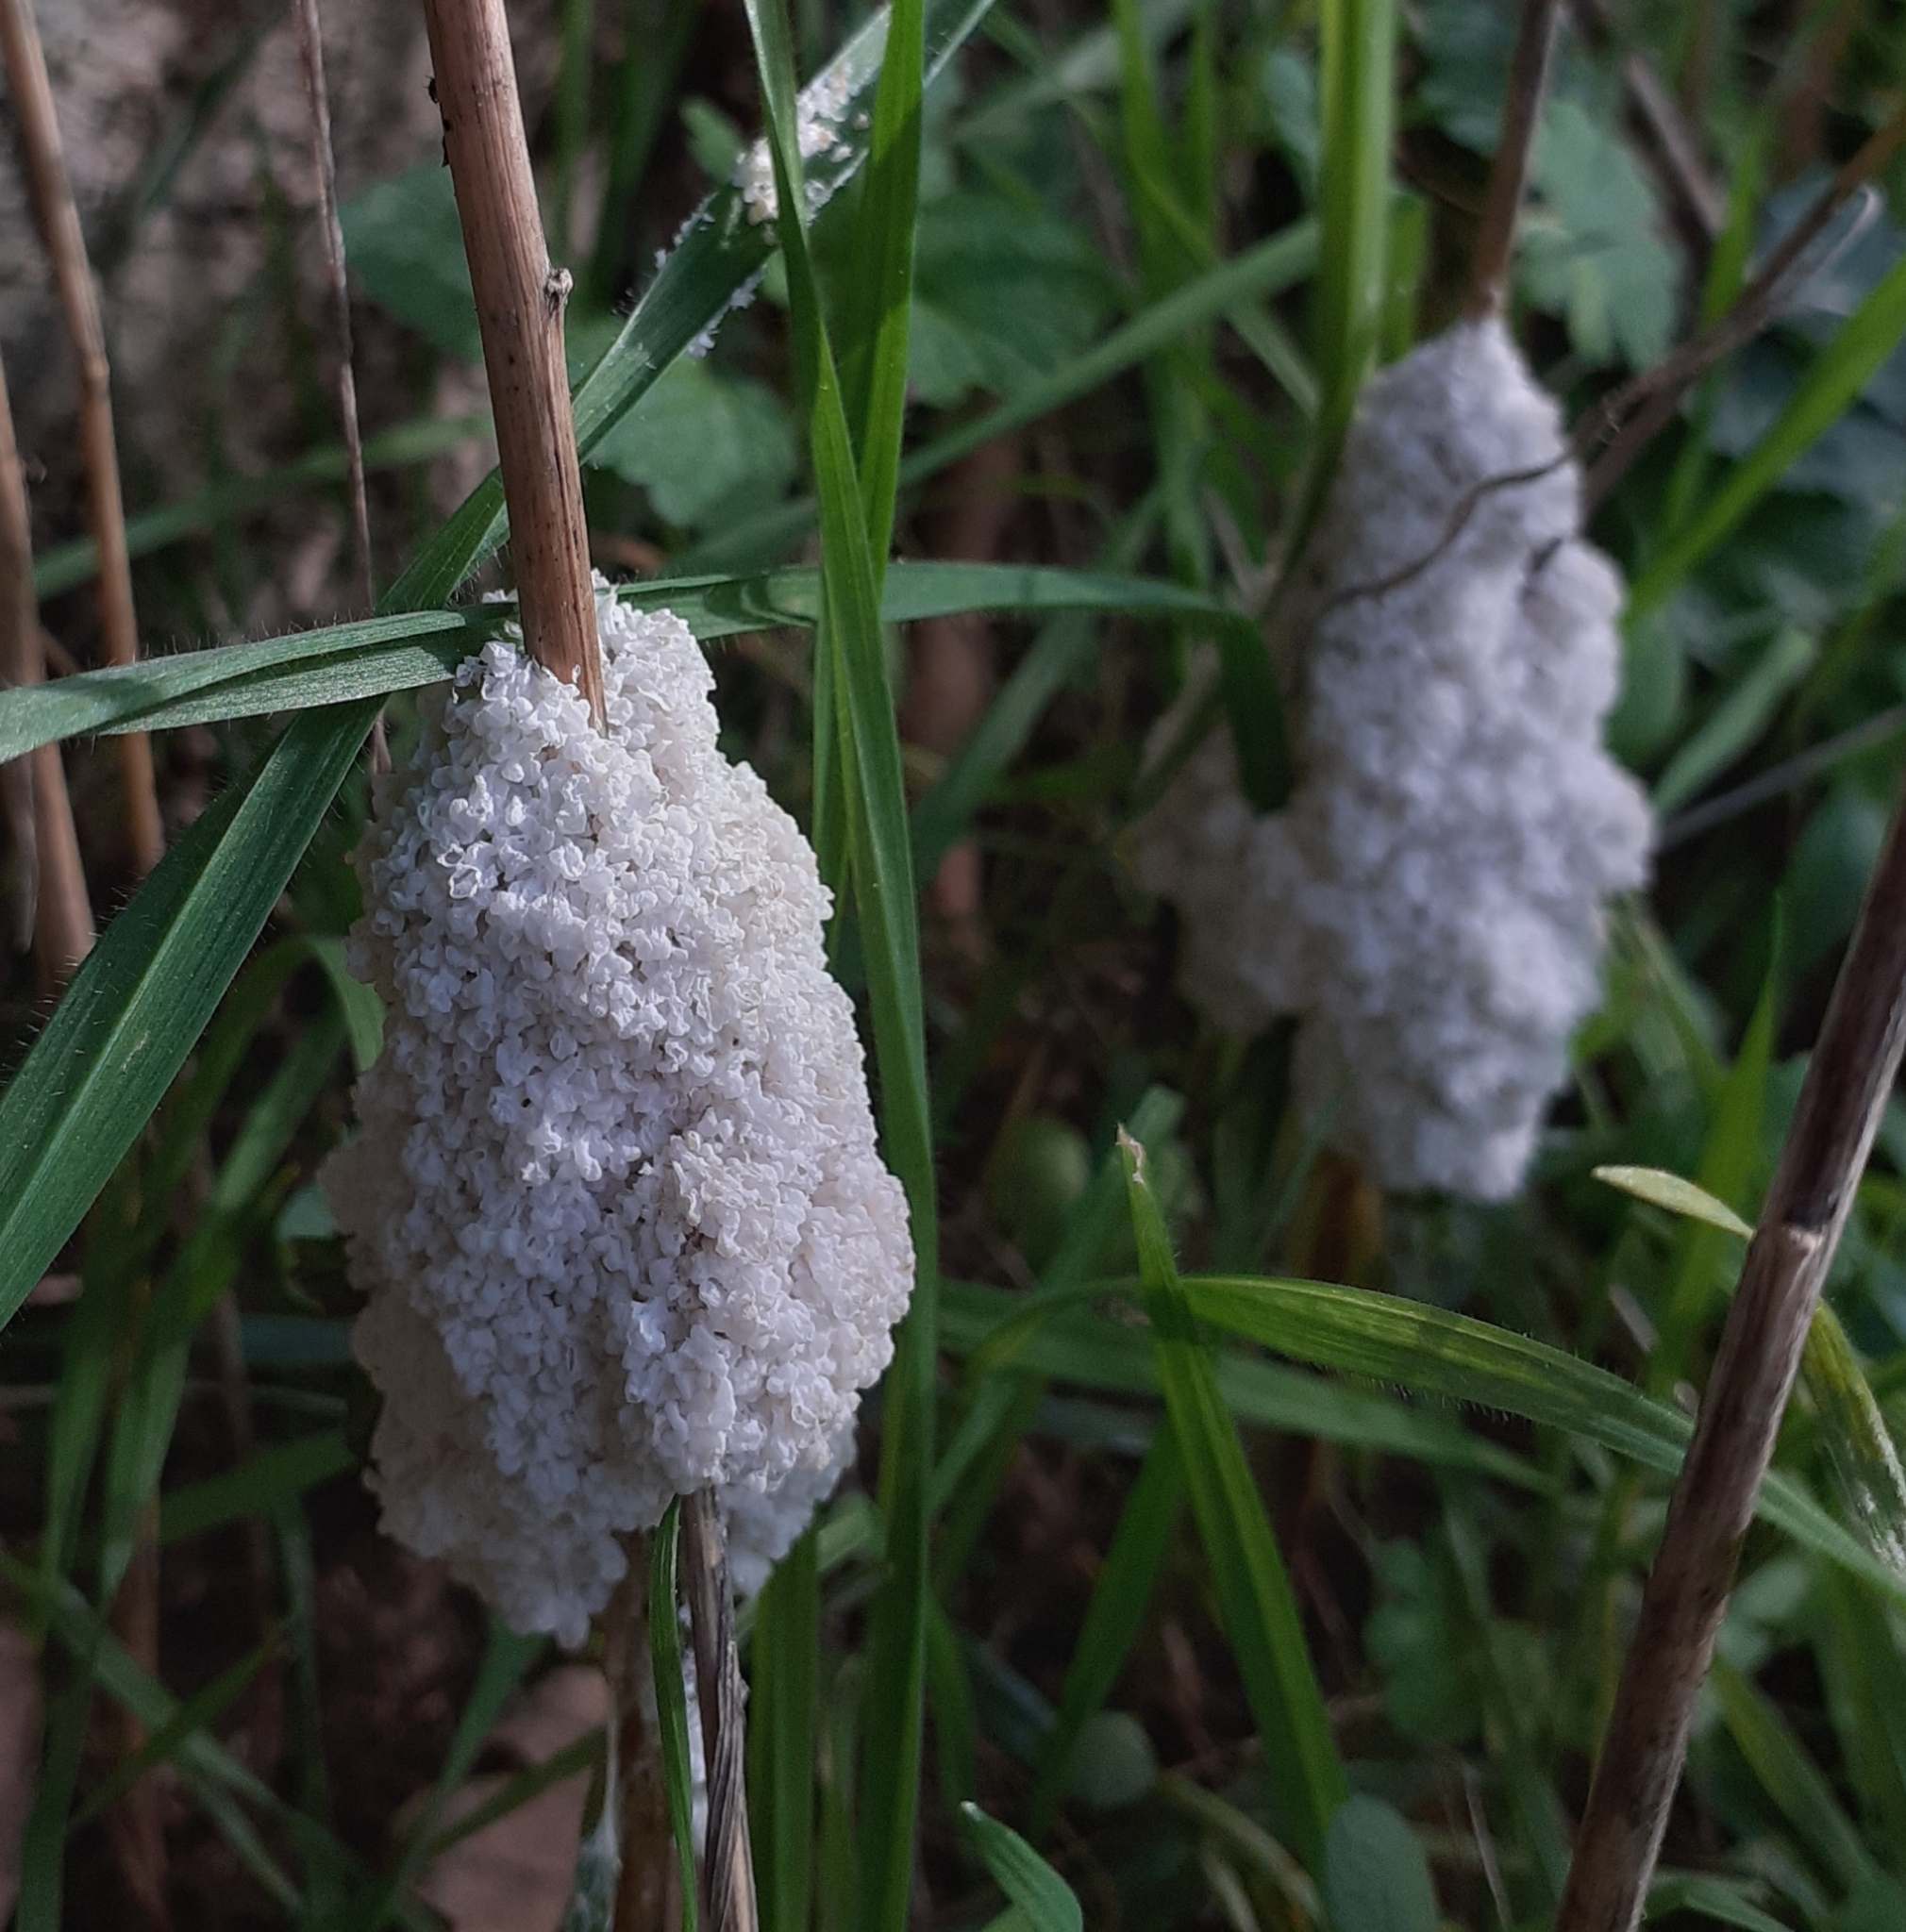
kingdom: Protozoa
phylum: Mycetozoa
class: Myxomycetes
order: Physarales
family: Physaraceae
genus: Didymium
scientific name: Didymium
